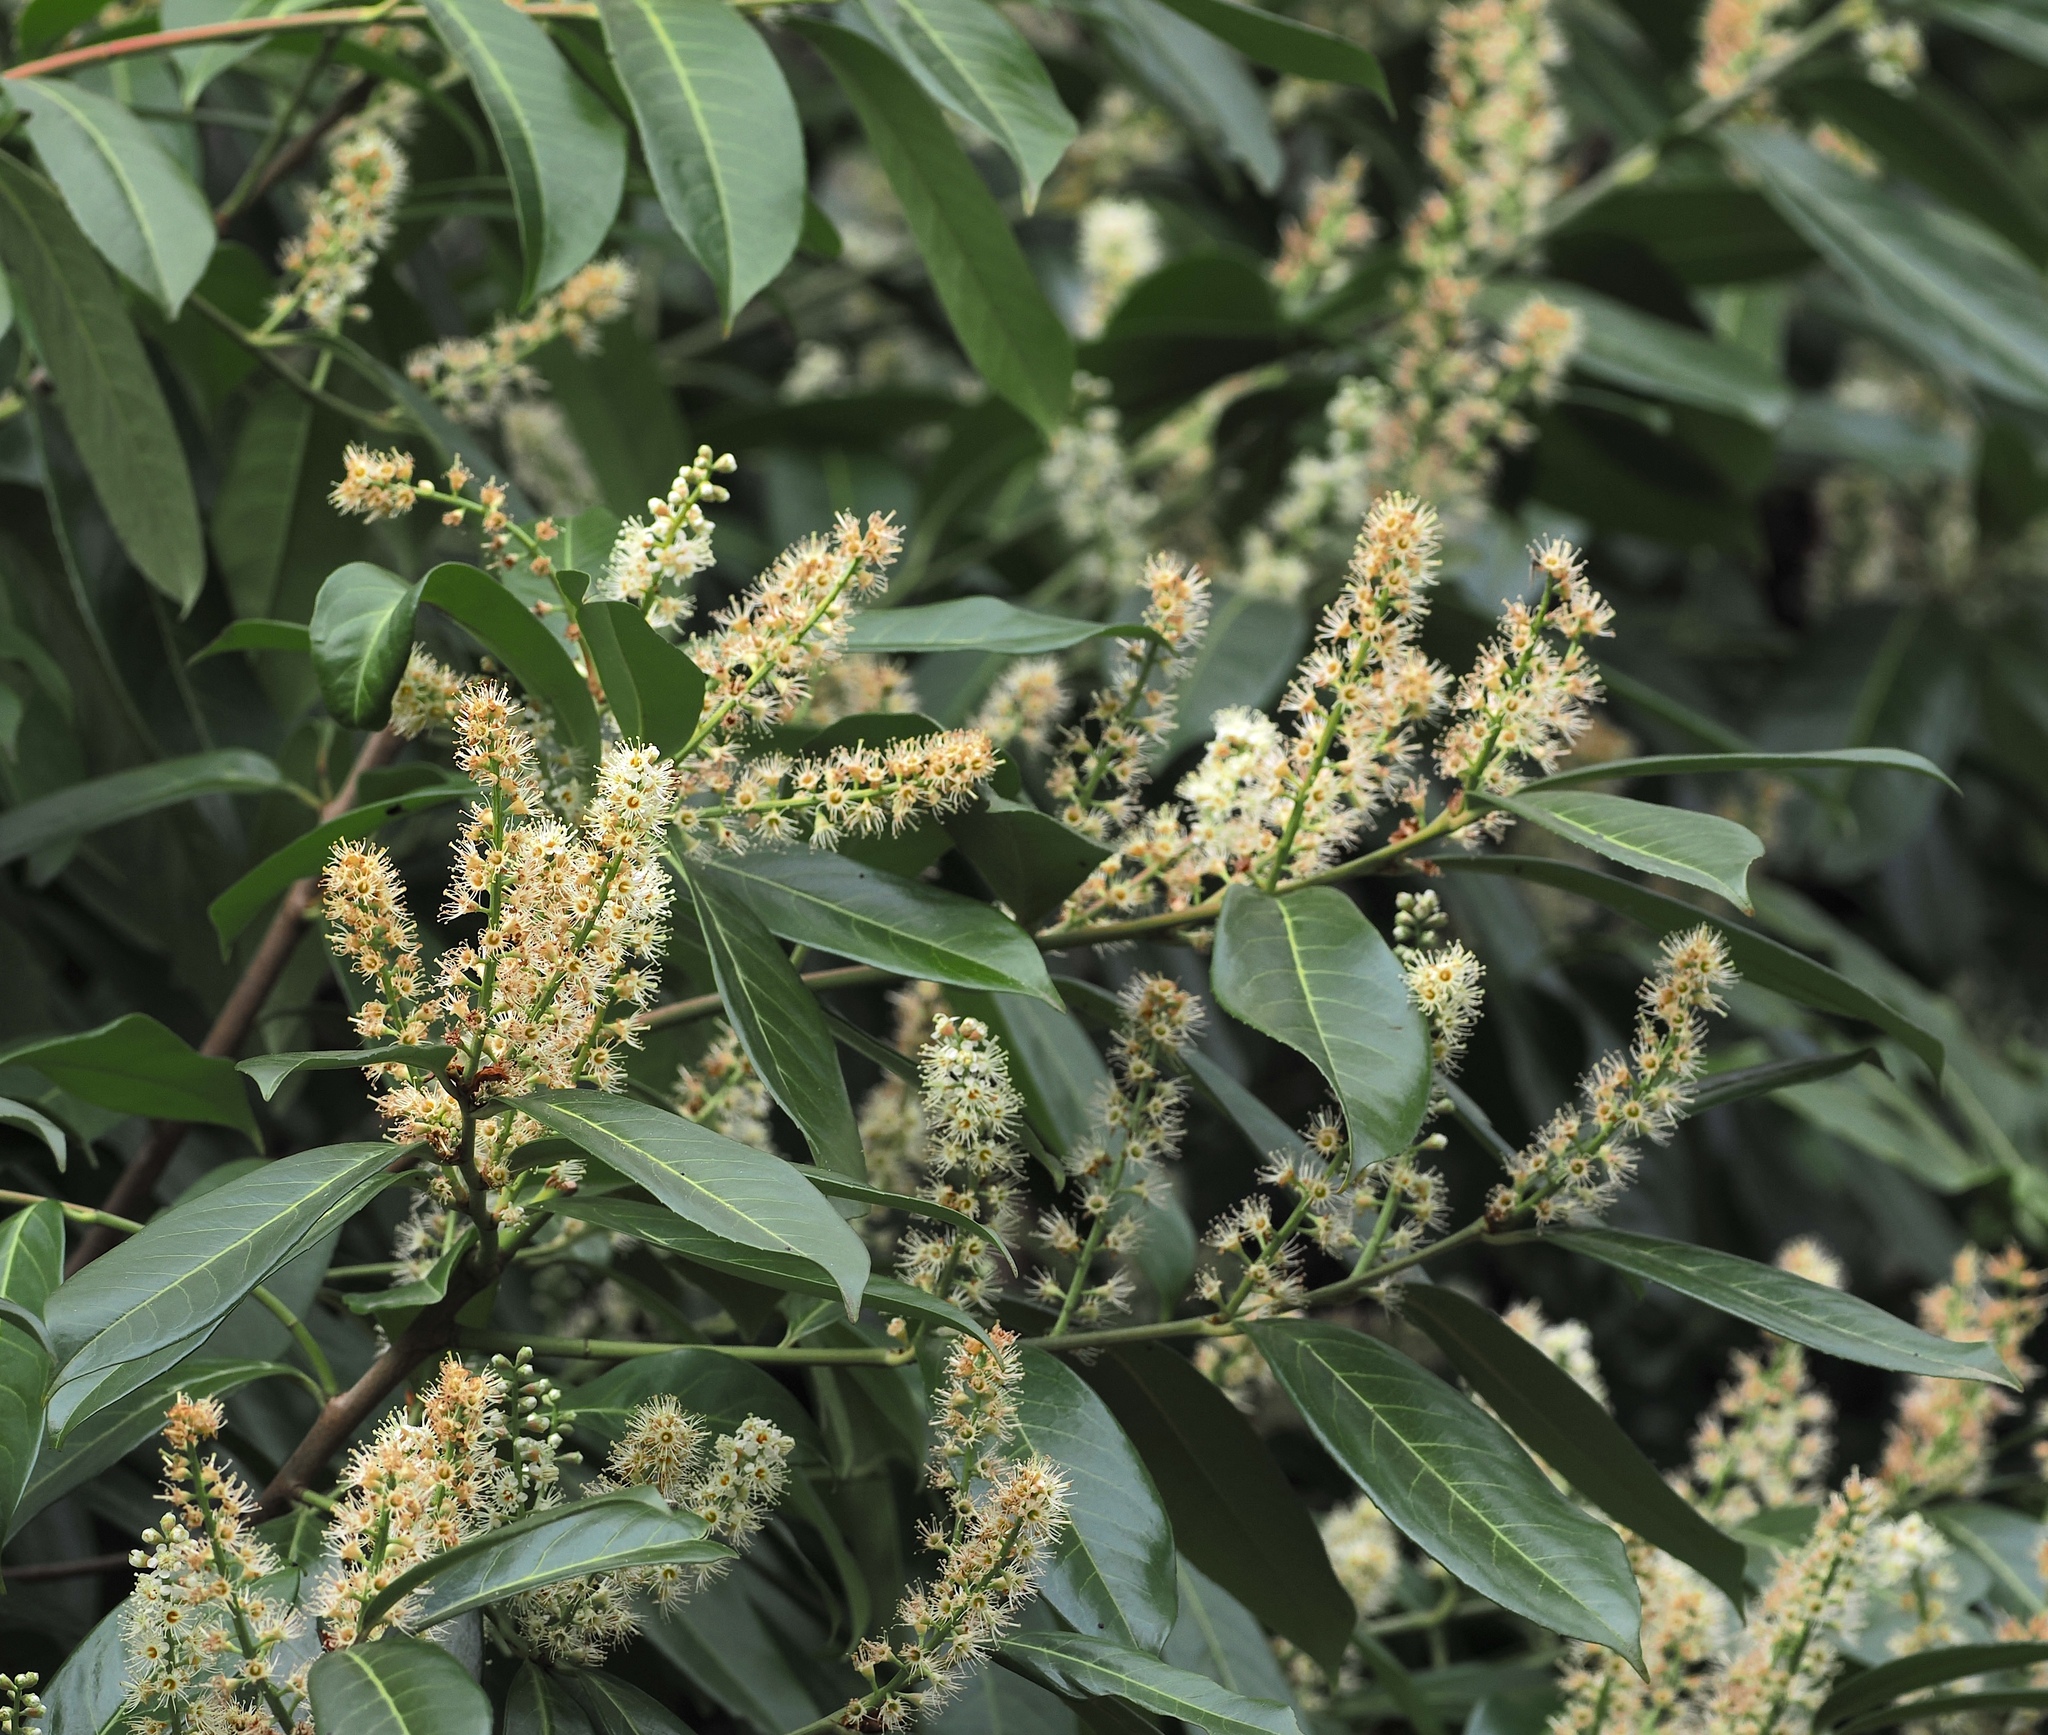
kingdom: Plantae
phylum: Tracheophyta
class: Magnoliopsida
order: Rosales
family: Rosaceae
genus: Prunus
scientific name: Prunus laurocerasus
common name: Cherry laurel
